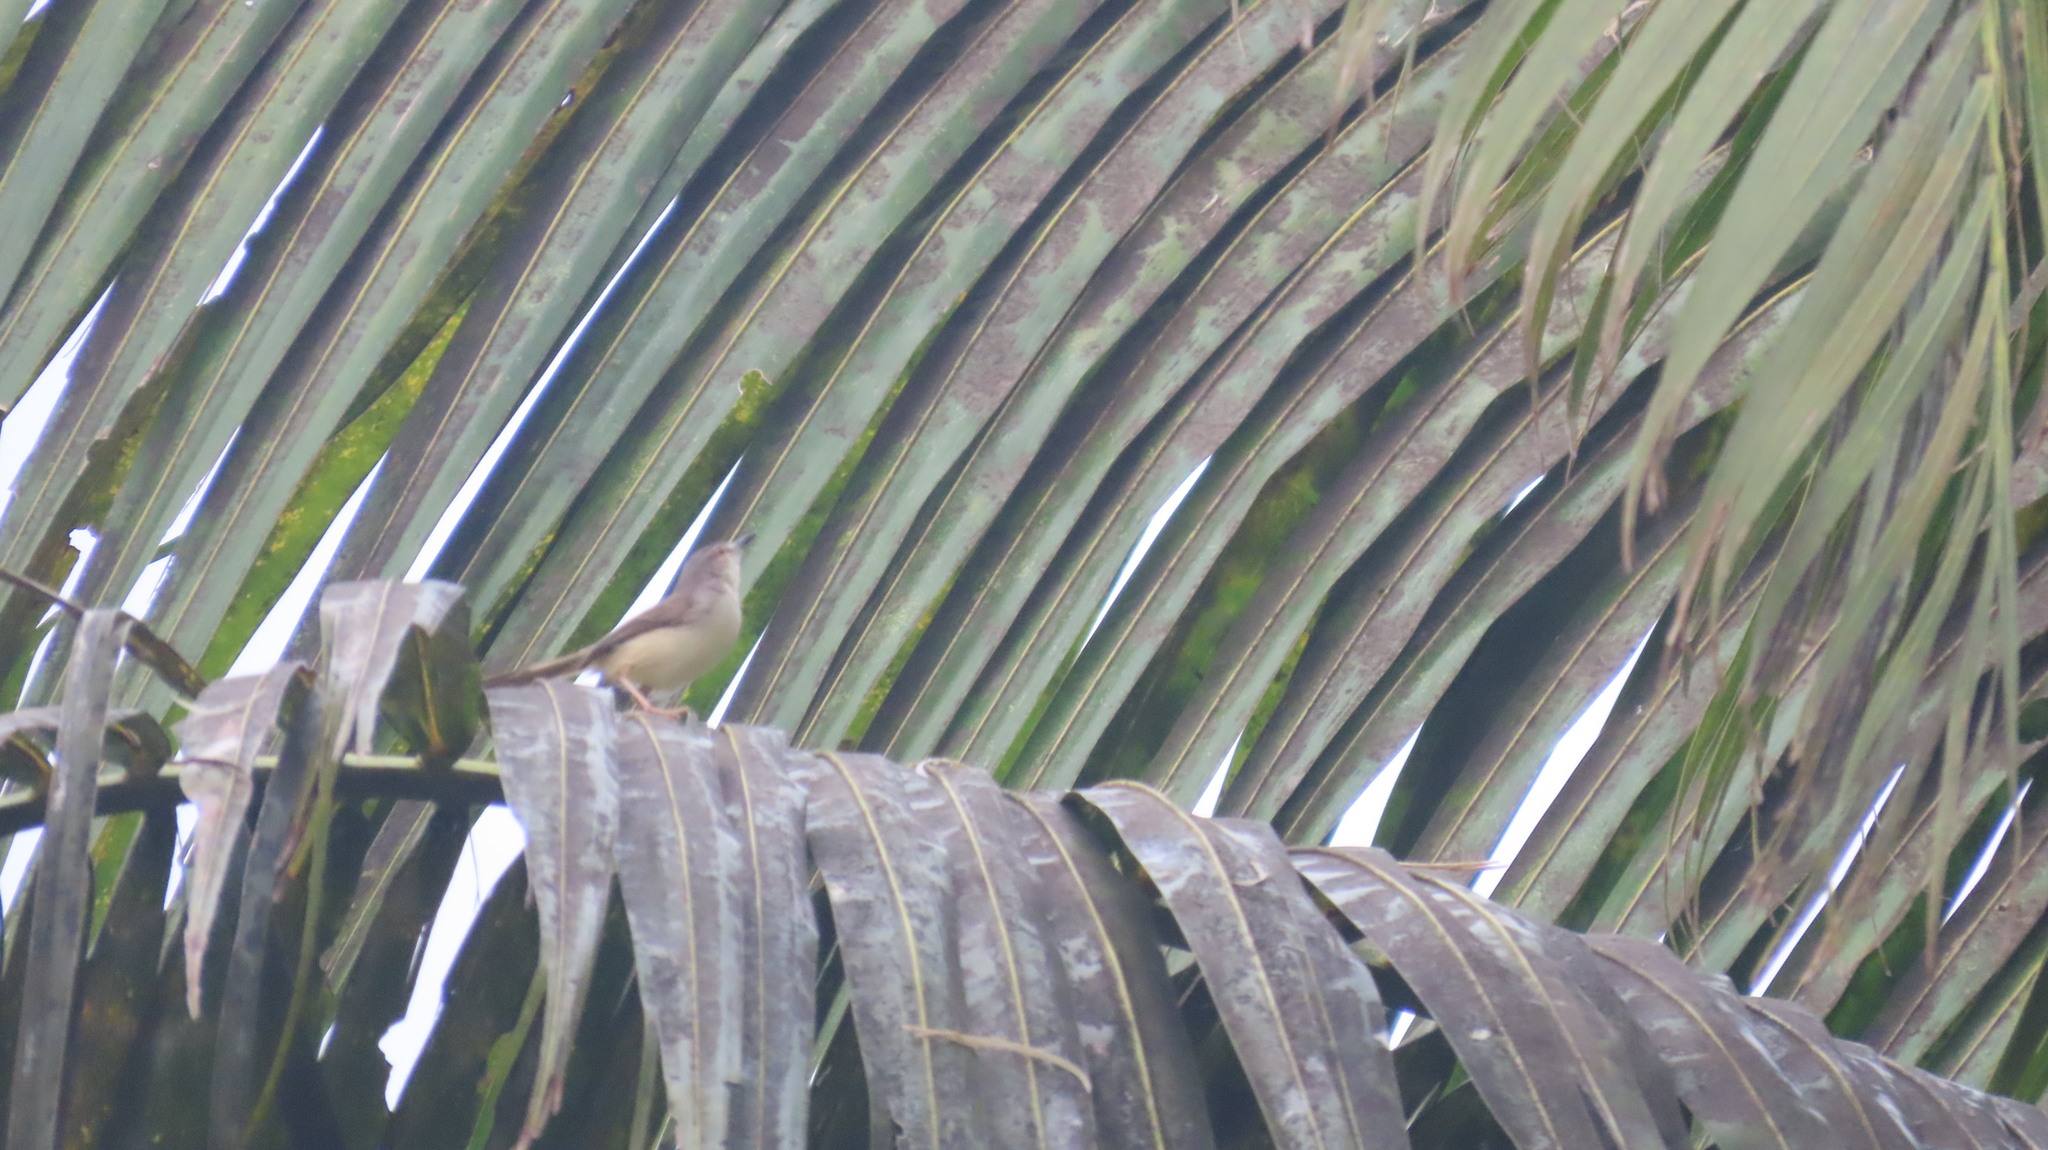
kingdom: Animalia
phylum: Chordata
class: Aves
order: Passeriformes
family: Cisticolidae
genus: Prinia
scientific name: Prinia inornata
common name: Plain prinia
